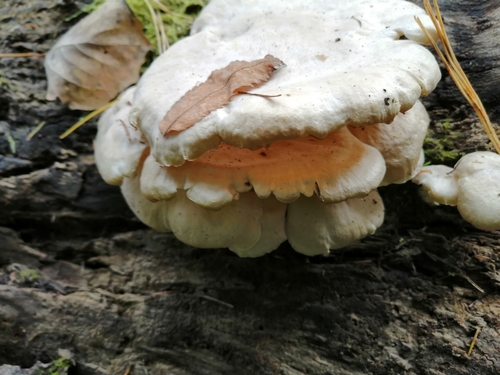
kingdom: Fungi
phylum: Basidiomycota
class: Agaricomycetes
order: Agaricales
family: Lyophyllaceae
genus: Ossicaulis
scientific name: Ossicaulis lignatilis
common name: Mealy oyster
